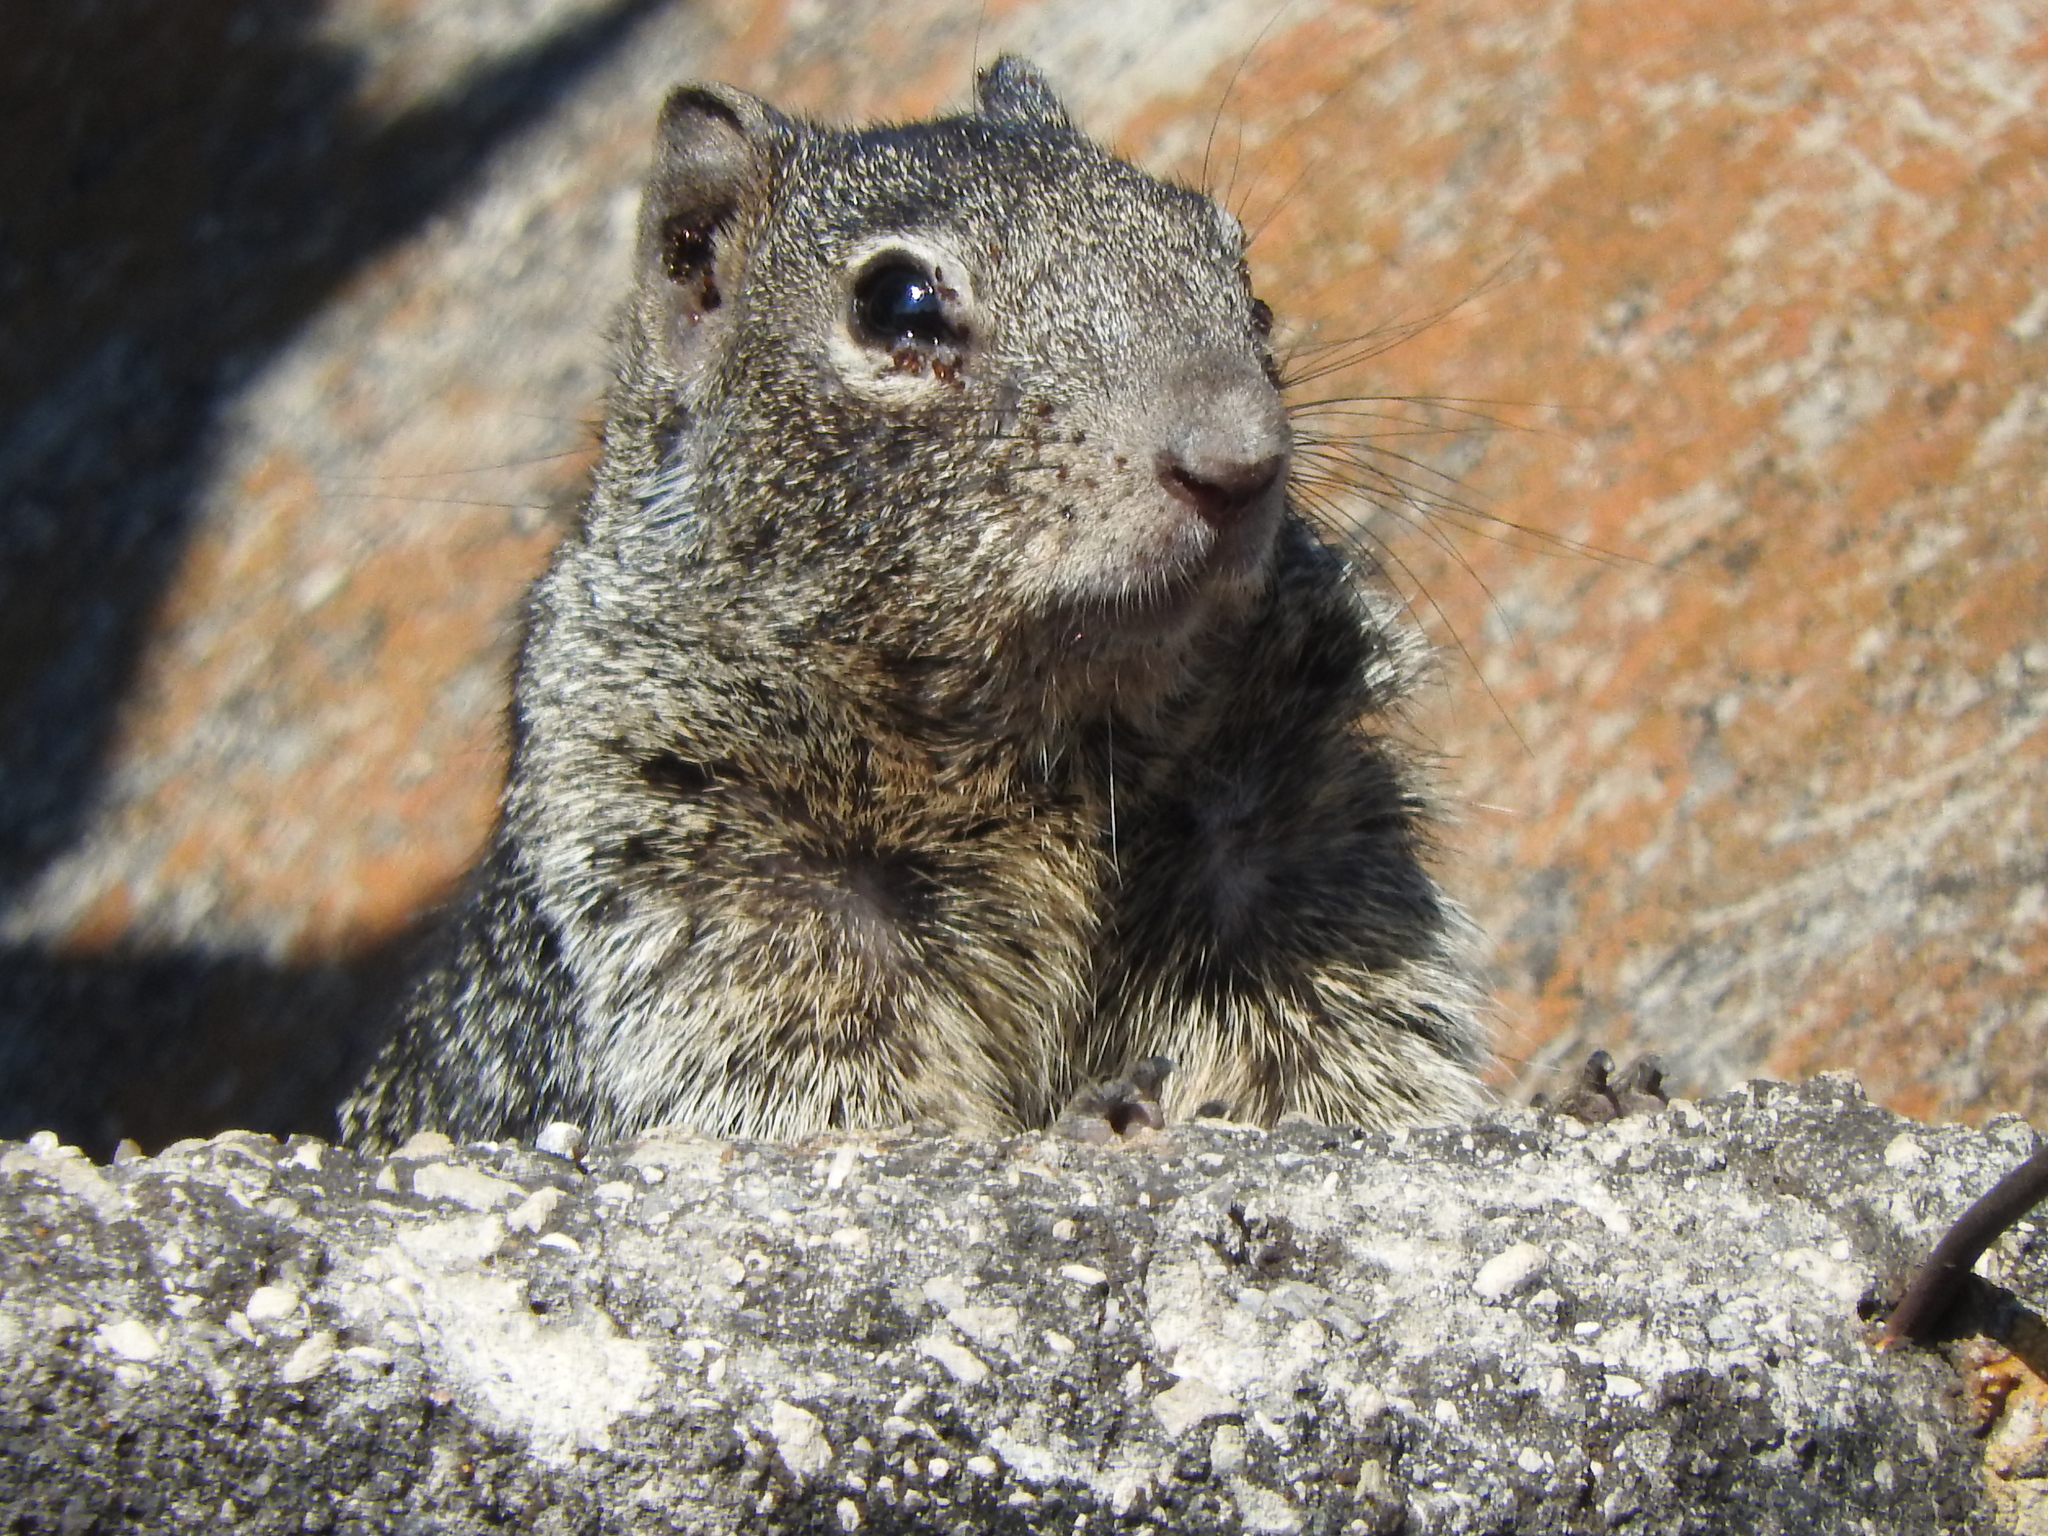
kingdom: Animalia
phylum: Chordata
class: Mammalia
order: Rodentia
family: Sciuridae
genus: Otospermophilus
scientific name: Otospermophilus variegatus
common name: Rock squirrel
